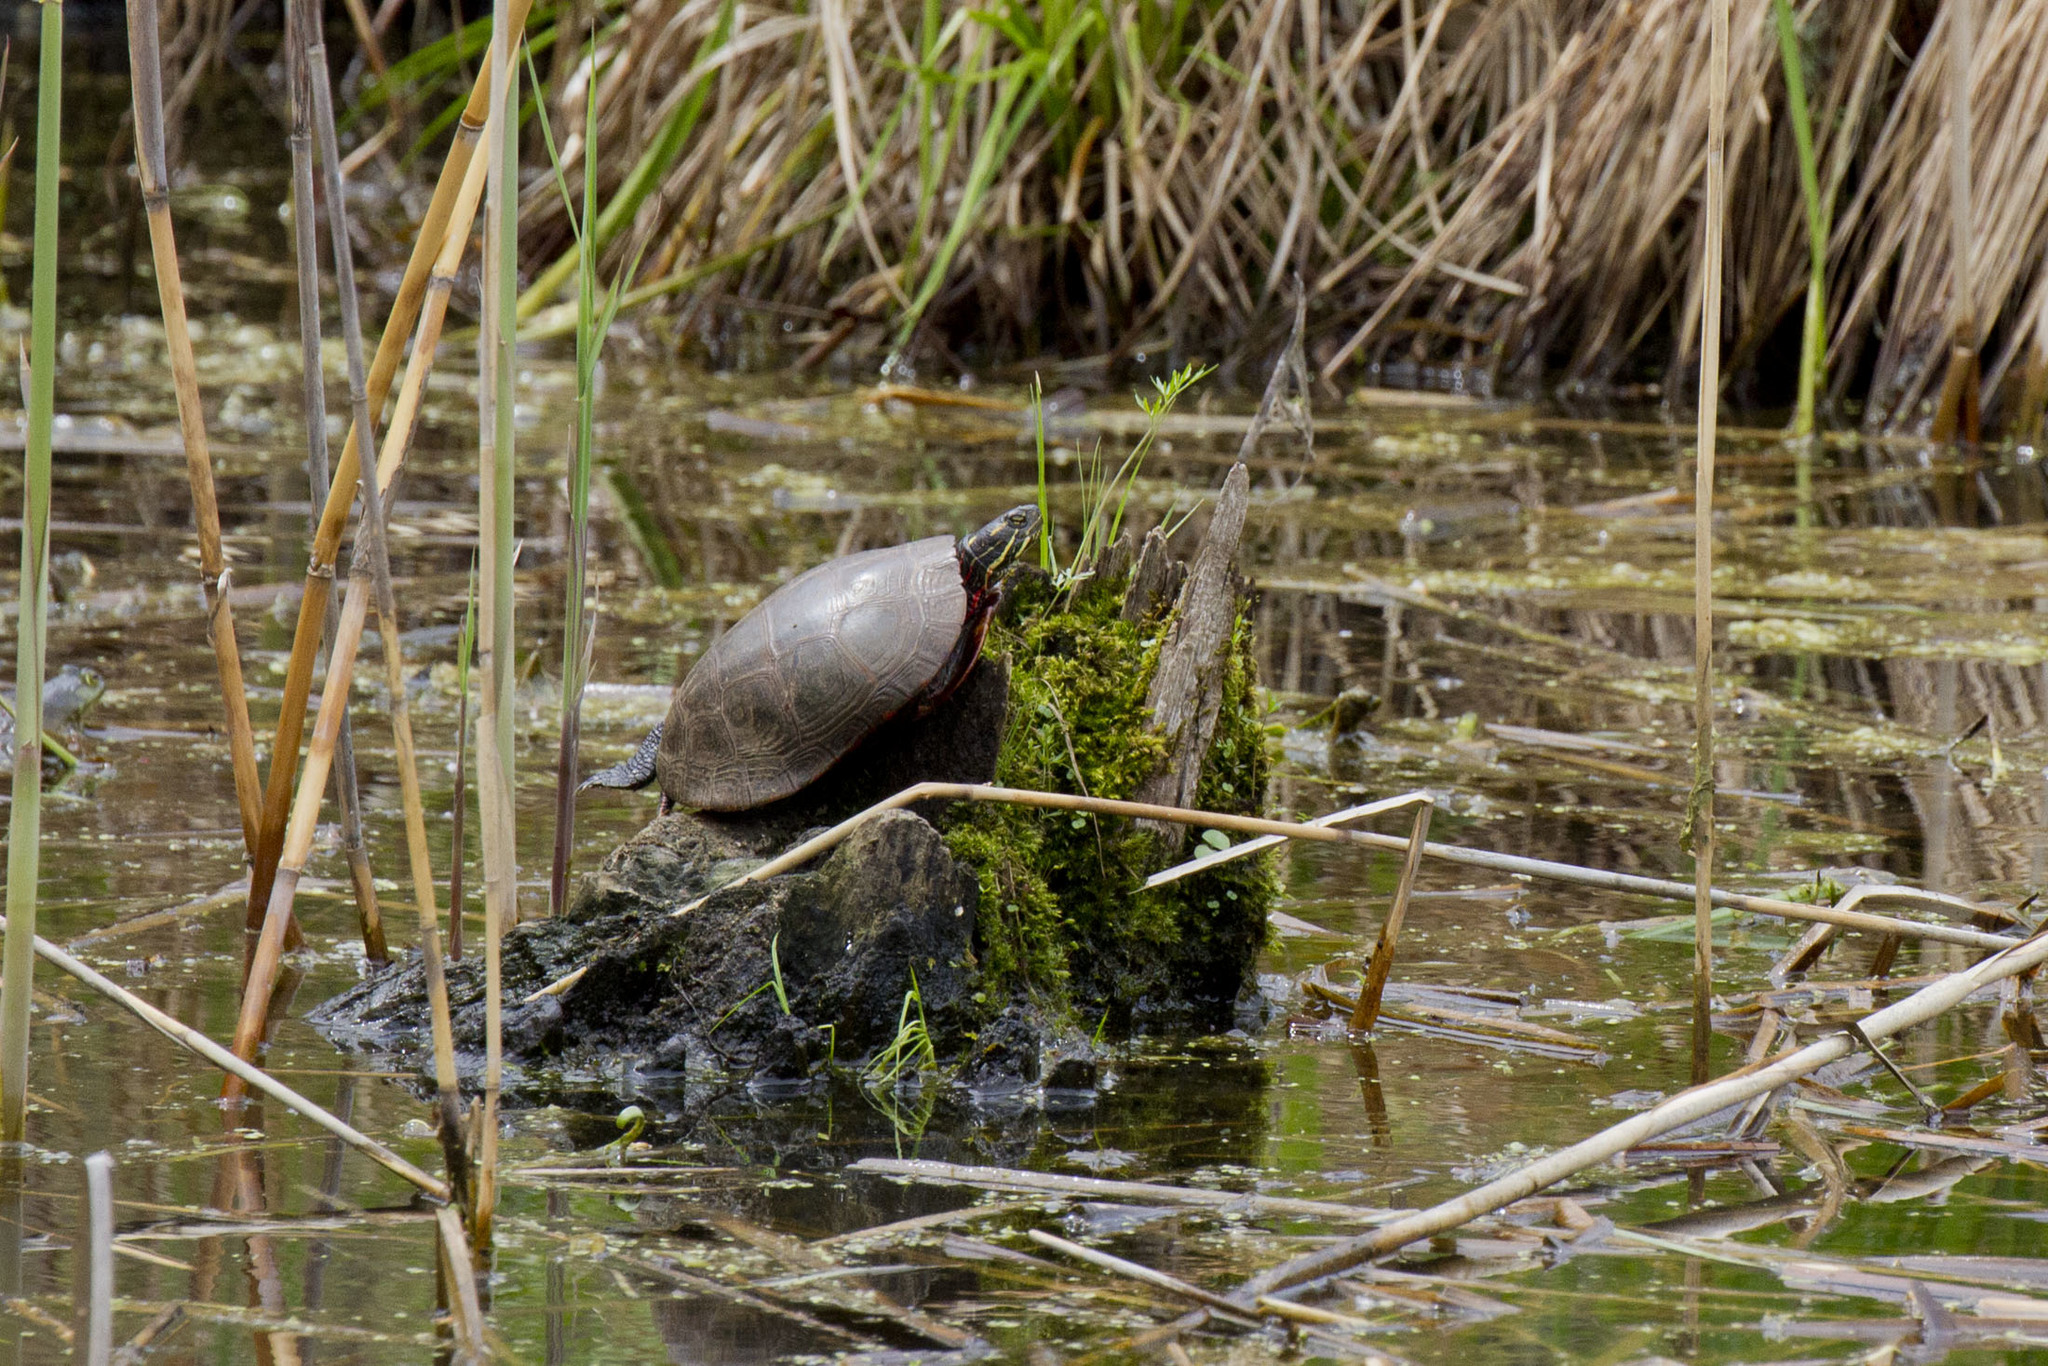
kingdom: Animalia
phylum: Chordata
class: Testudines
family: Emydidae
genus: Chrysemys
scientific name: Chrysemys picta
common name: Painted turtle
